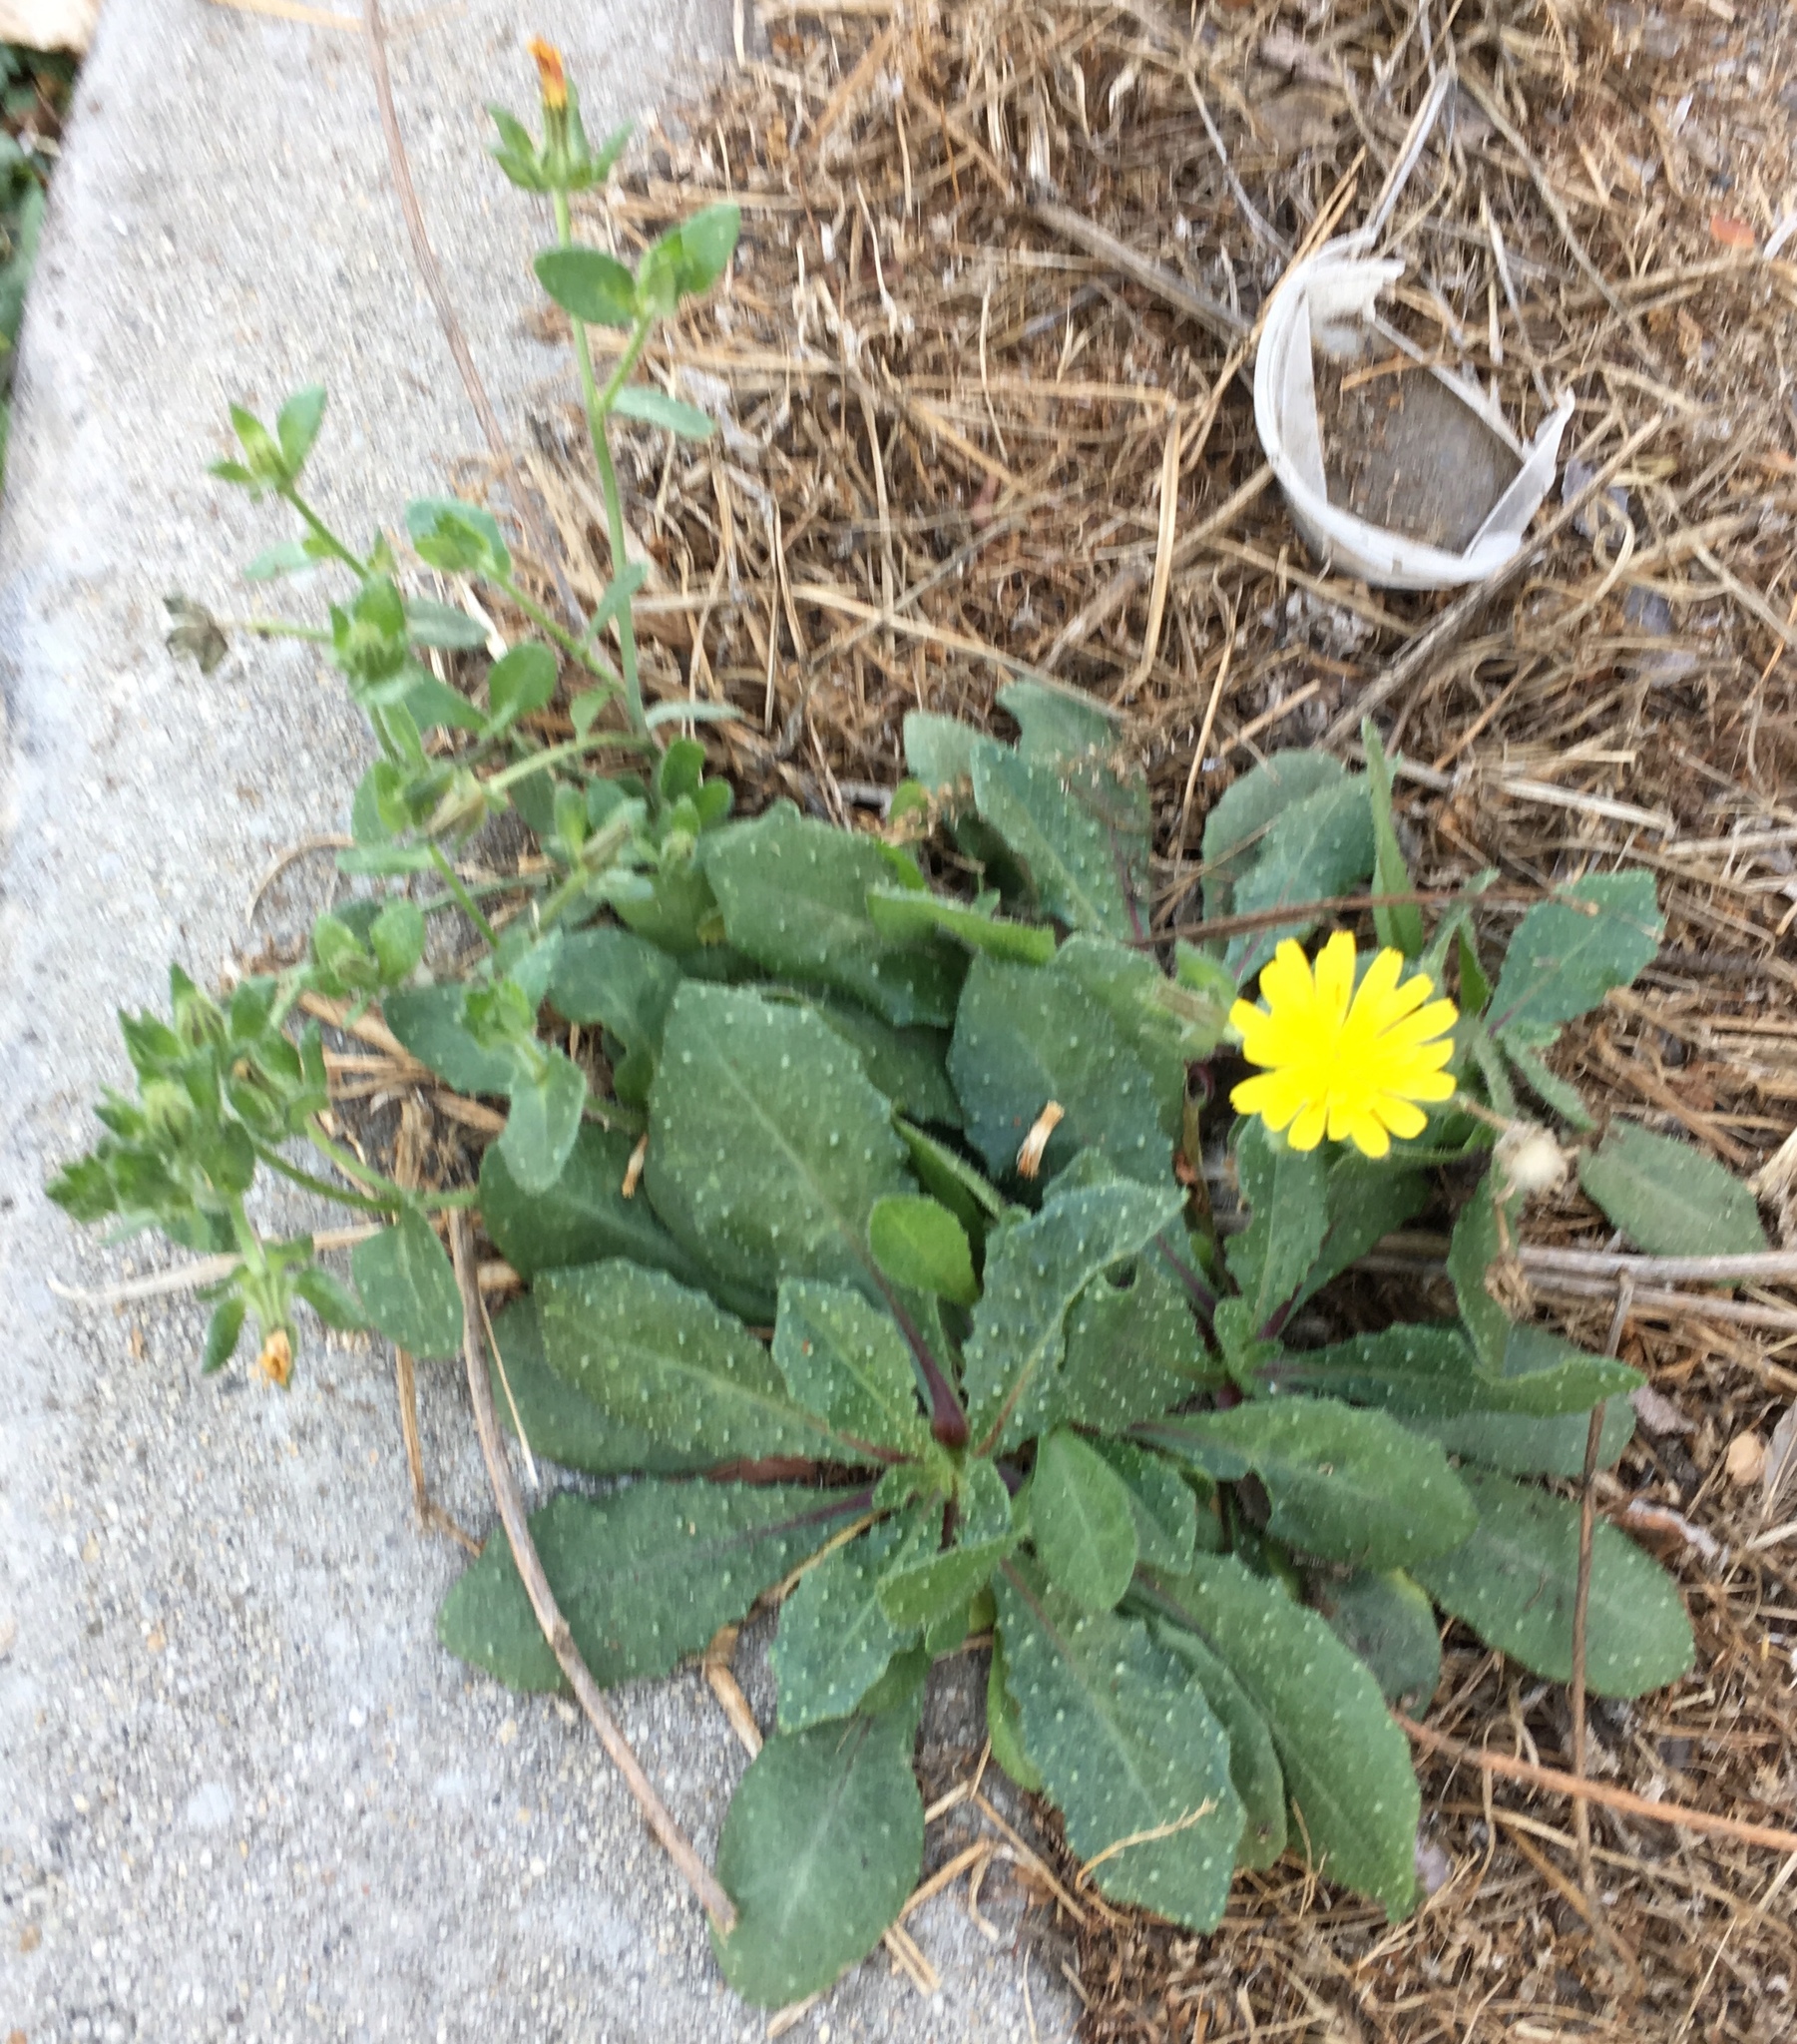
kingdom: Plantae
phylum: Tracheophyta
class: Magnoliopsida
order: Asterales
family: Asteraceae
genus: Helminthotheca
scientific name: Helminthotheca echioides
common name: Ox-tongue
